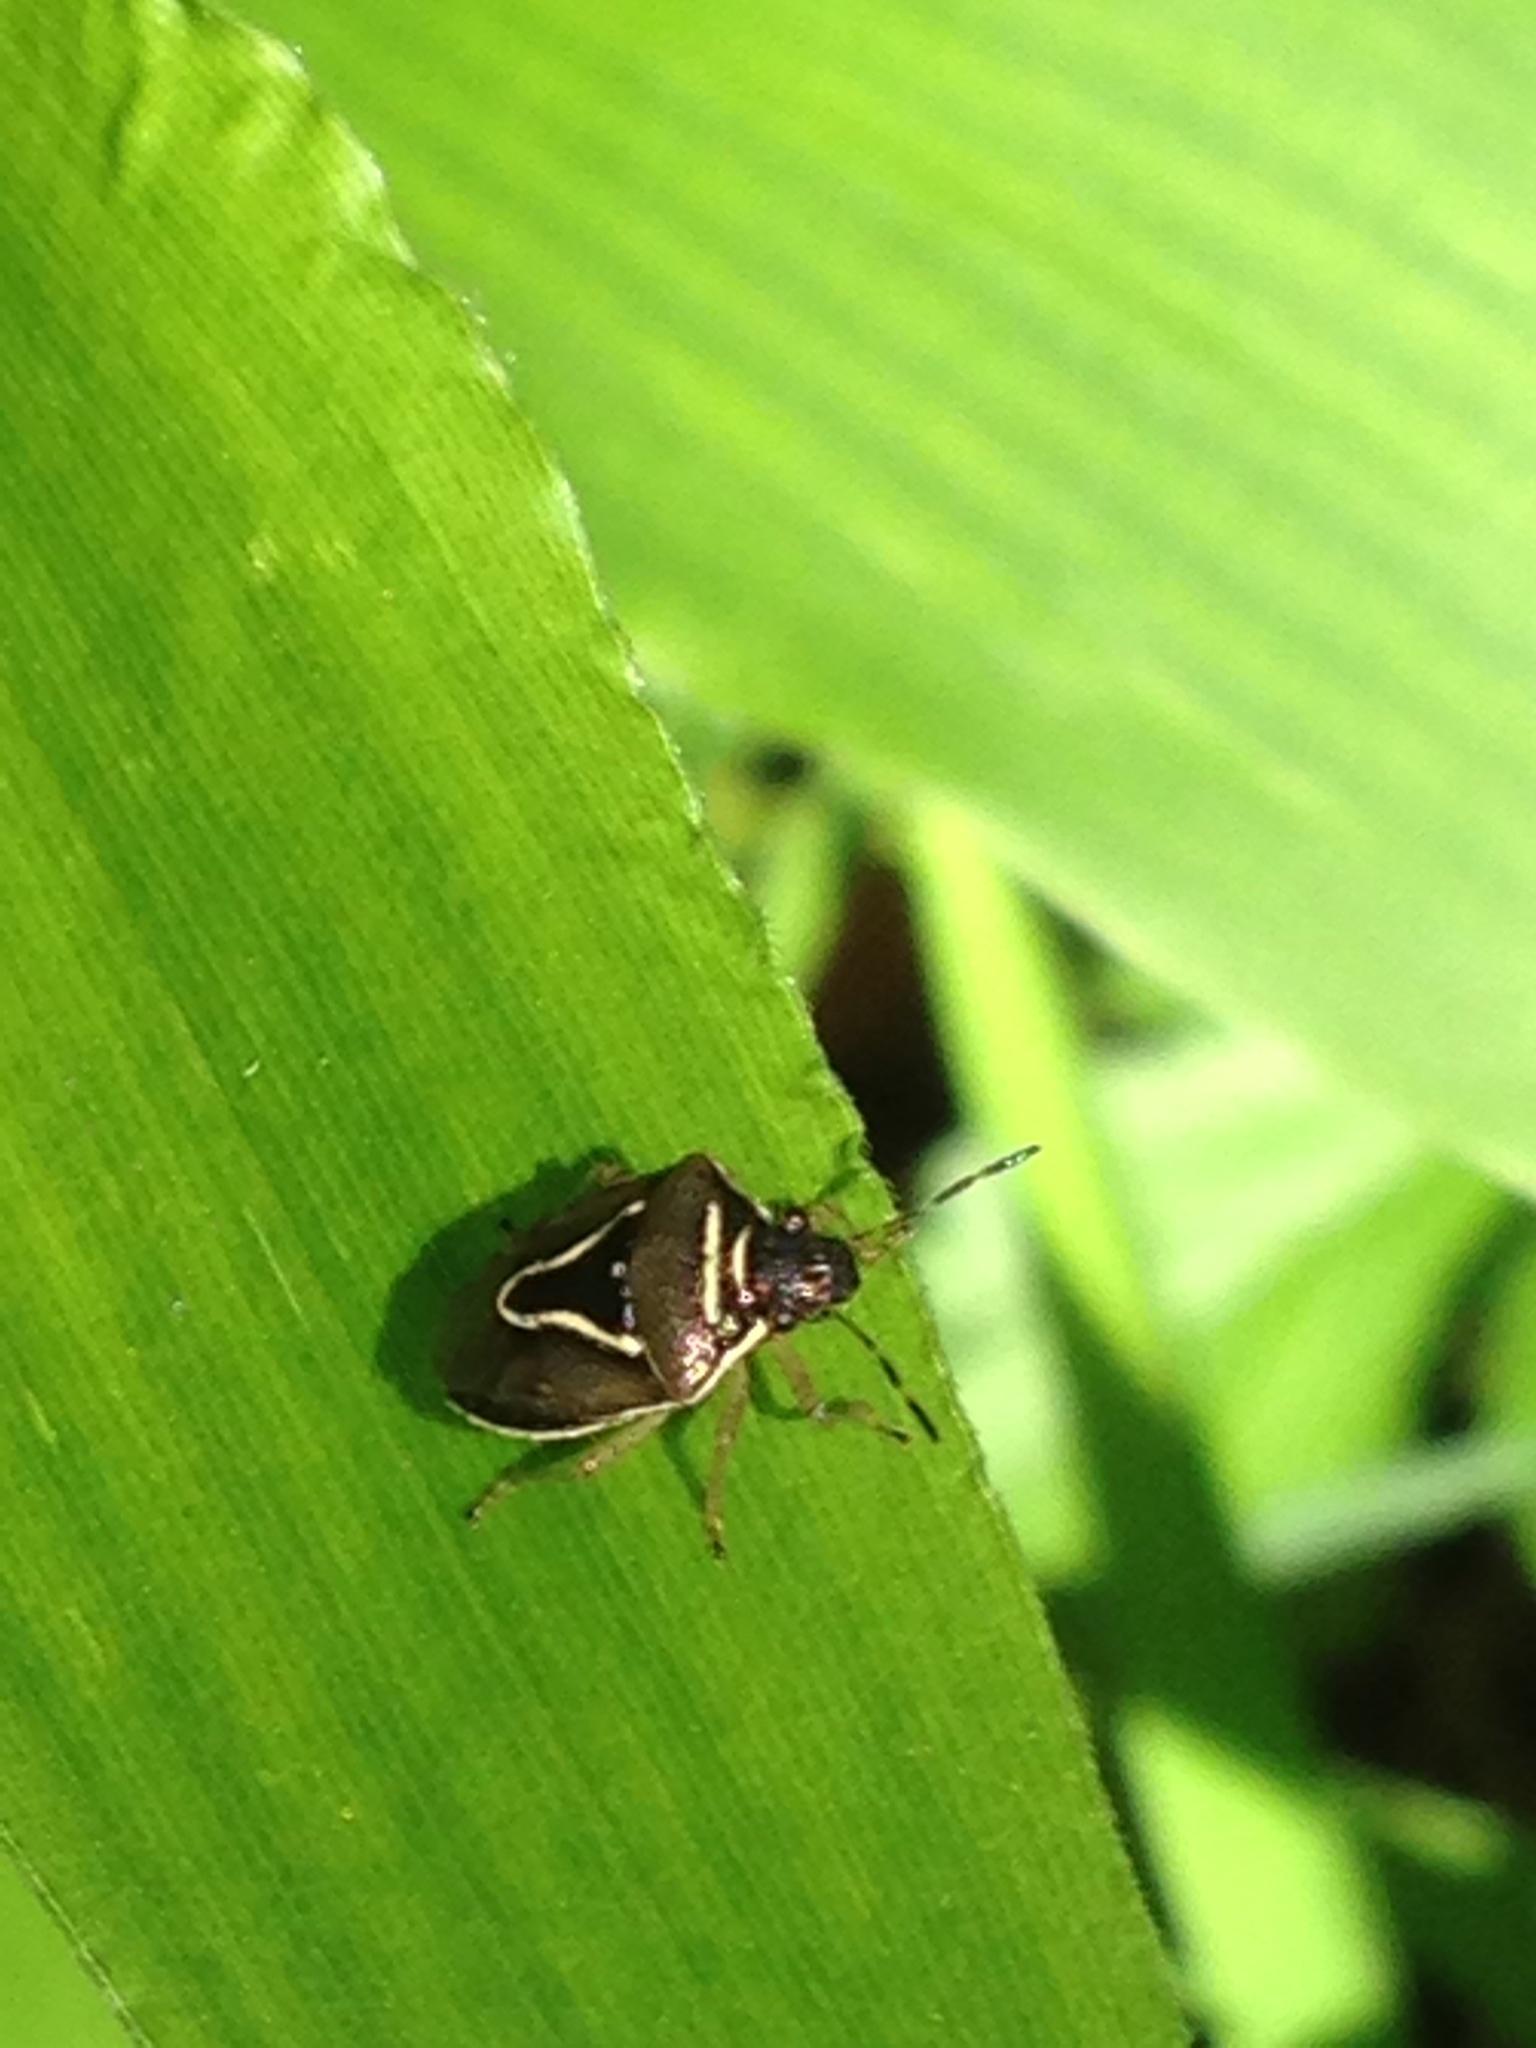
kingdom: Animalia
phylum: Arthropoda
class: Insecta
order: Hemiptera
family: Pentatomidae
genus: Mormidea
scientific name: Mormidea lugens
